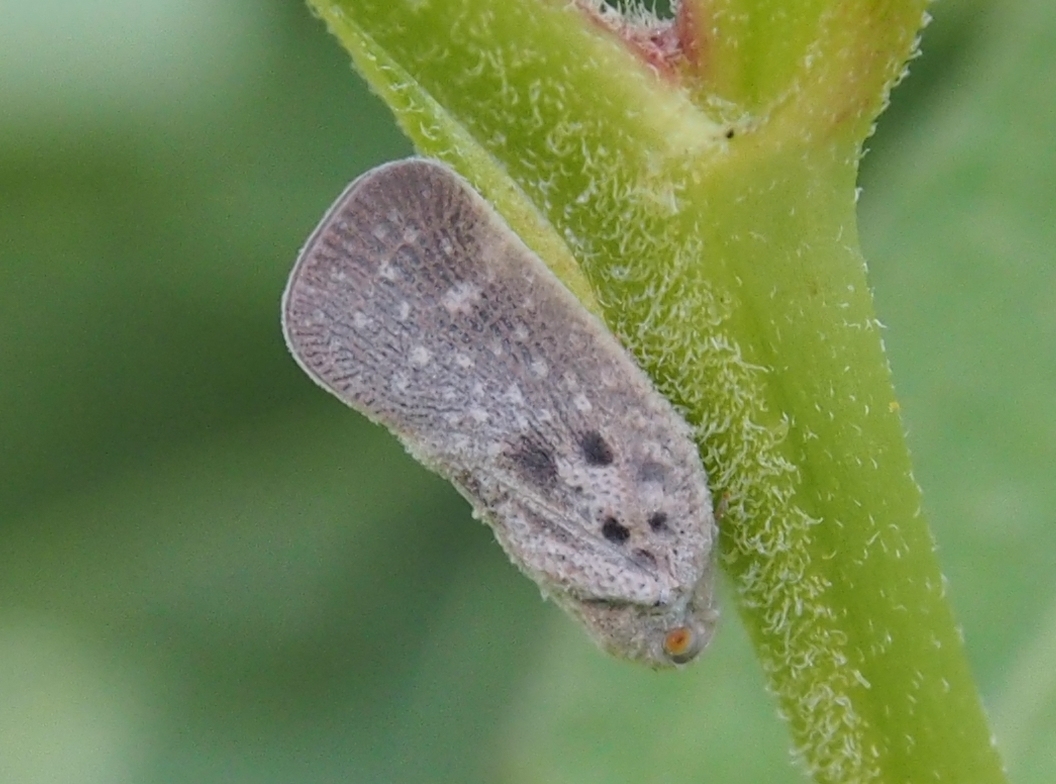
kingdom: Animalia
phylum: Arthropoda
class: Insecta
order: Hemiptera
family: Flatidae
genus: Metcalfa
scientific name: Metcalfa pruinosa
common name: Citrus flatid planthopper
